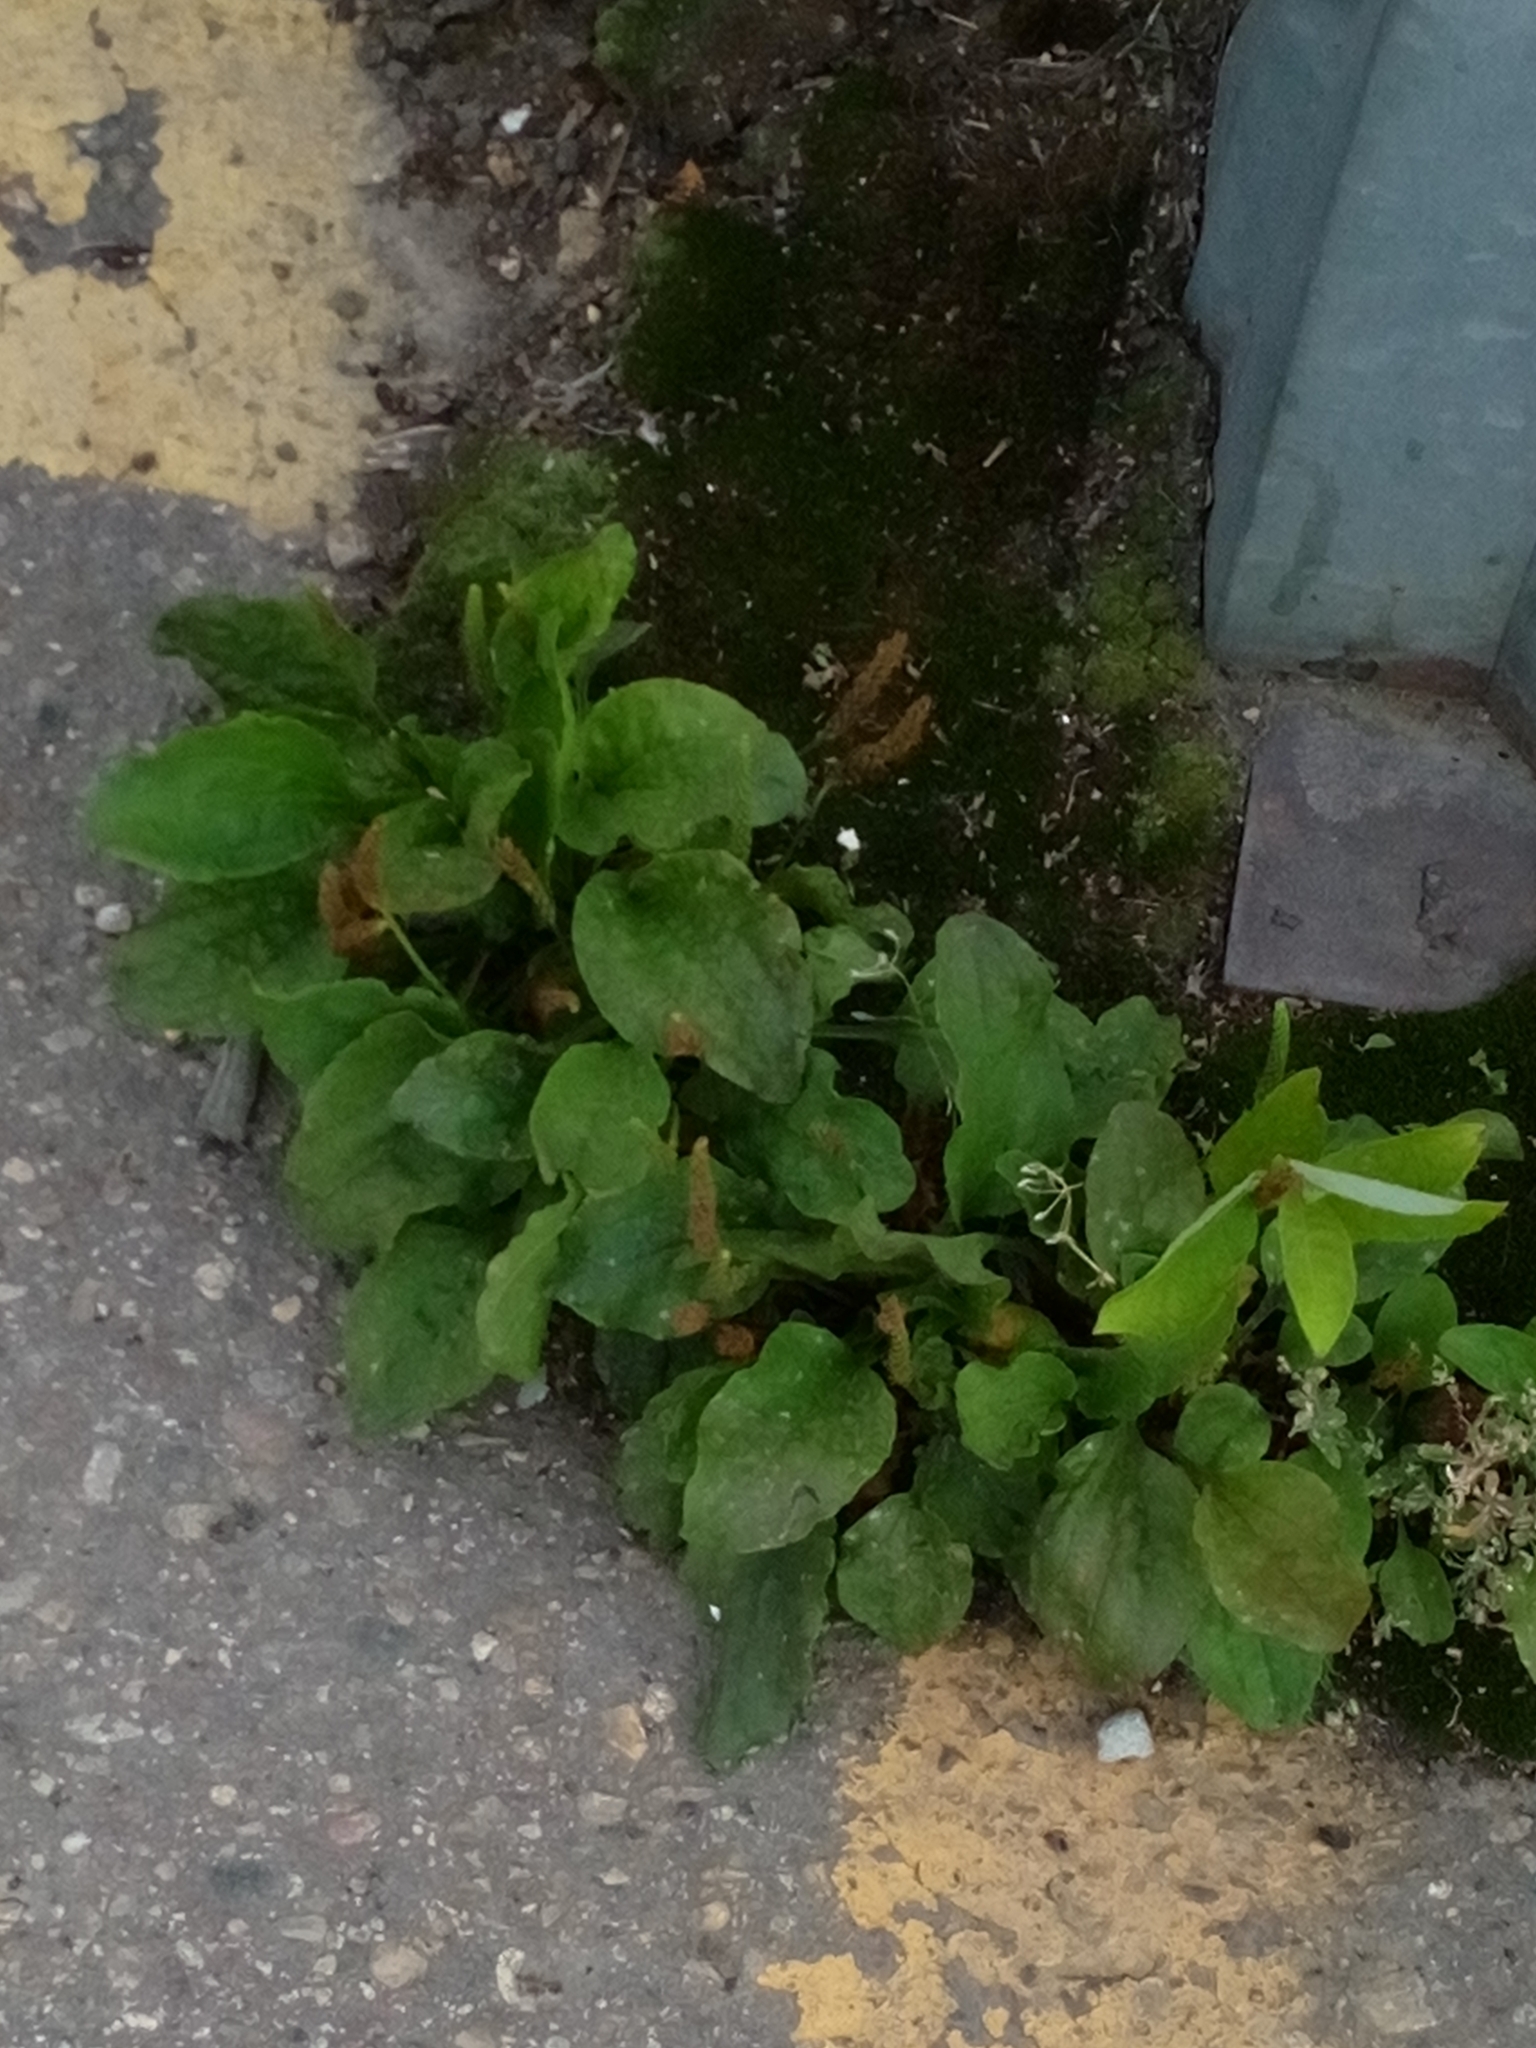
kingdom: Plantae
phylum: Tracheophyta
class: Magnoliopsida
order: Lamiales
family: Plantaginaceae
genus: Plantago
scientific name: Plantago major
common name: Common plantain
